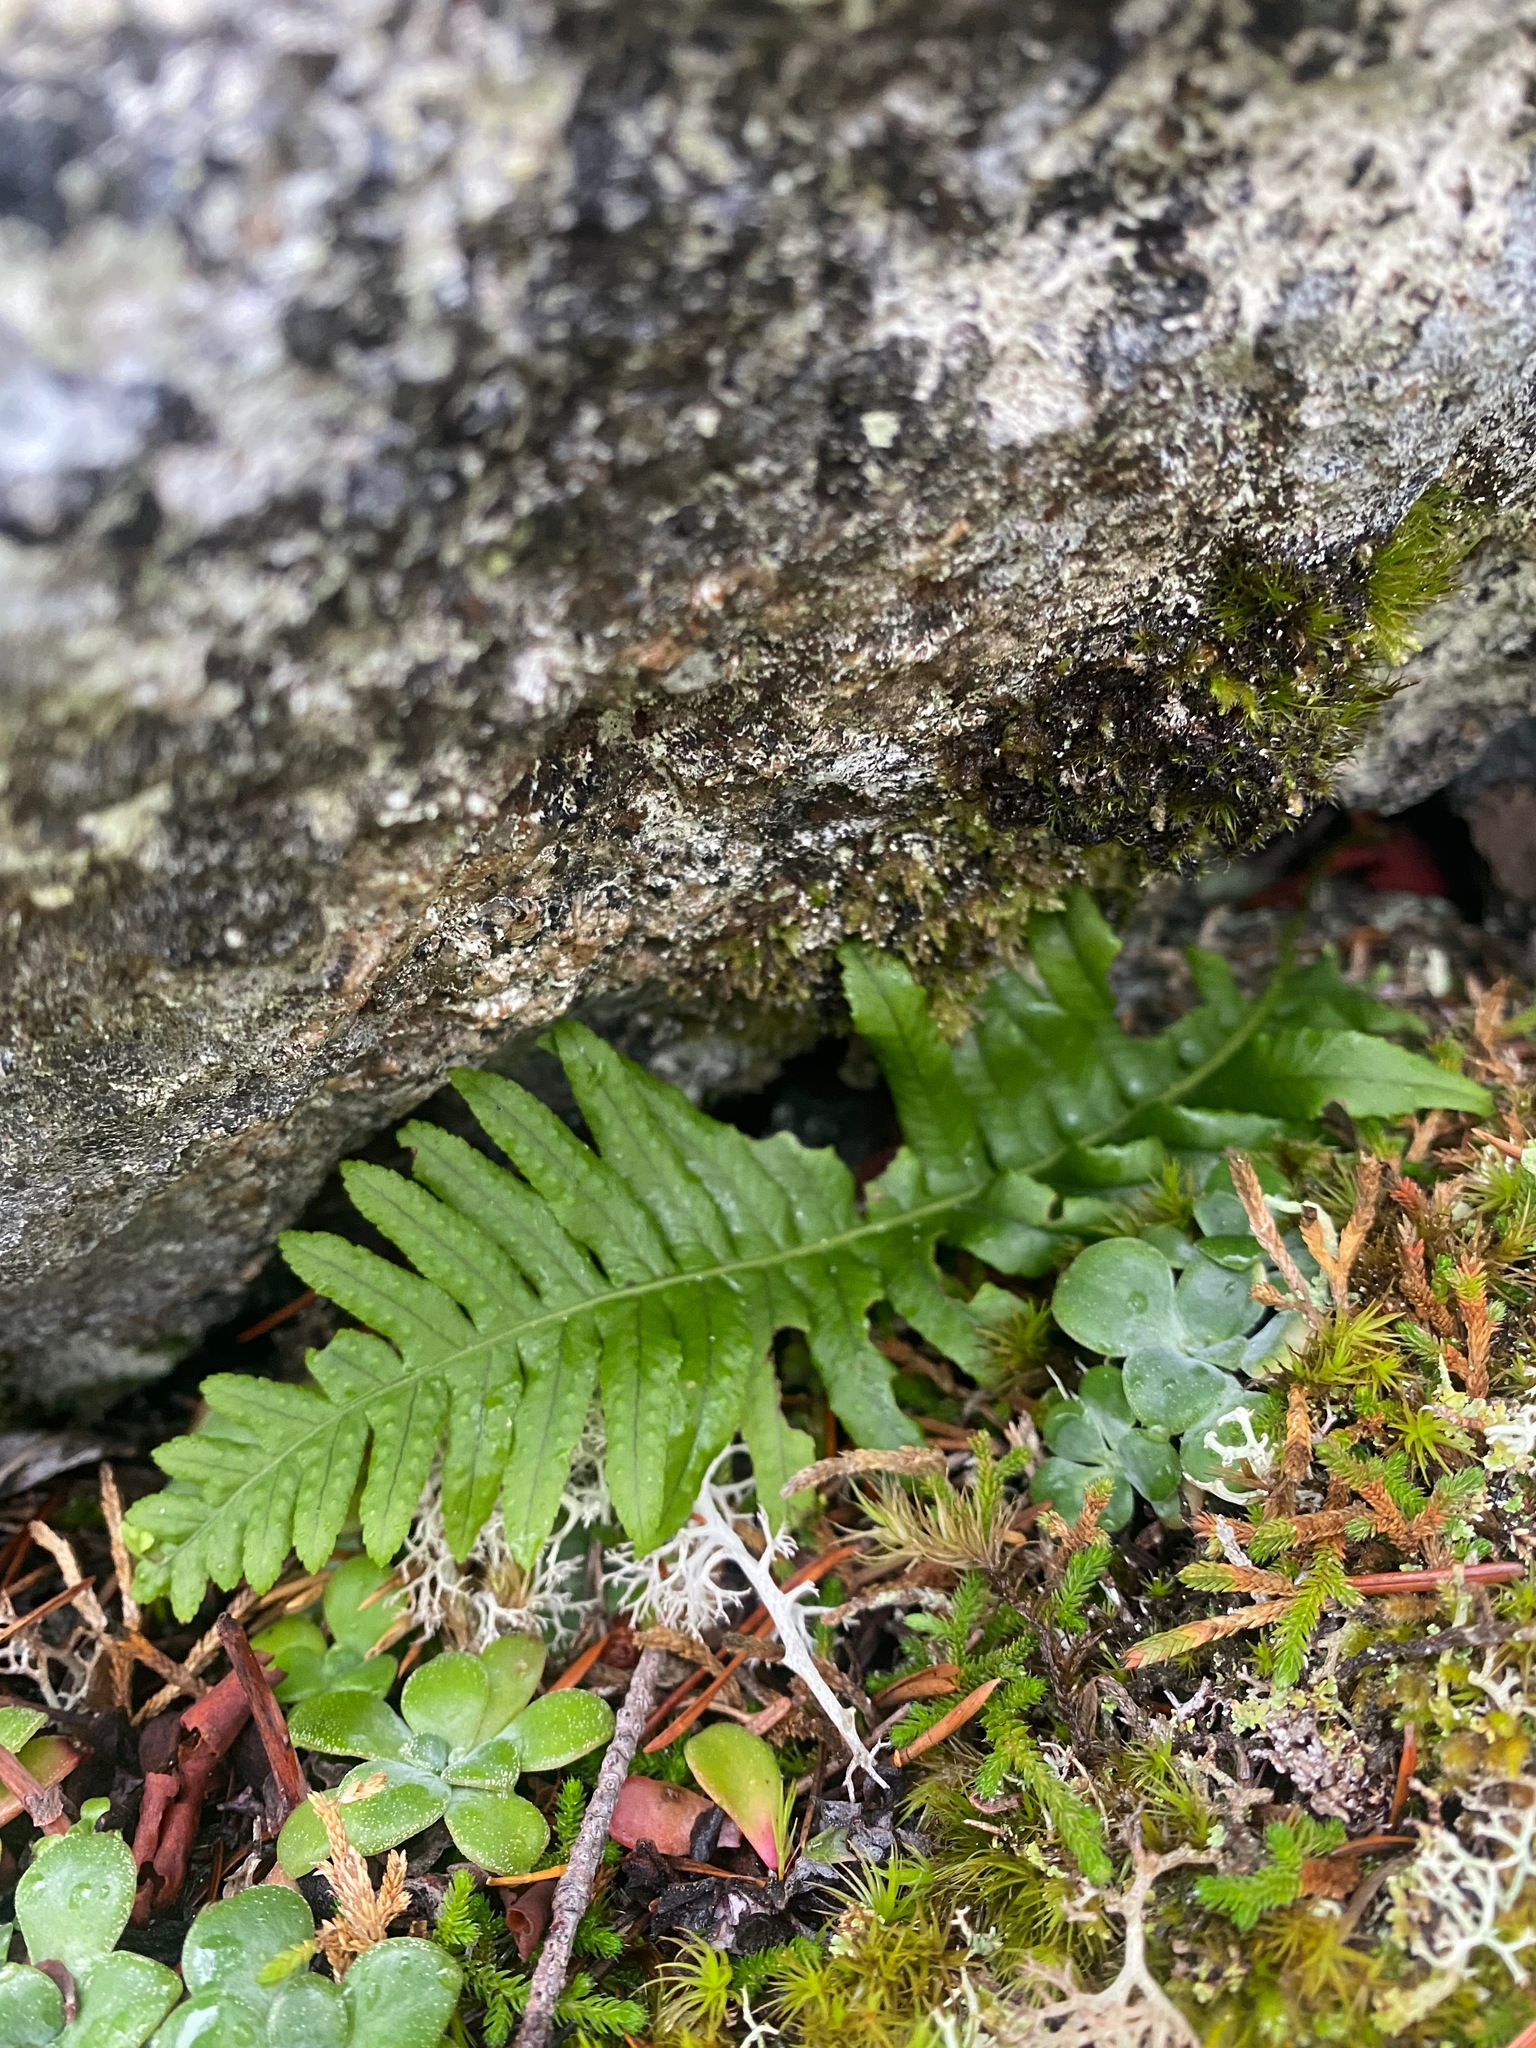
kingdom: Plantae
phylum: Tracheophyta
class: Polypodiopsida
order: Polypodiales
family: Polypodiaceae
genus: Polypodium
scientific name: Polypodium glycyrrhiza
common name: Licorice fern
